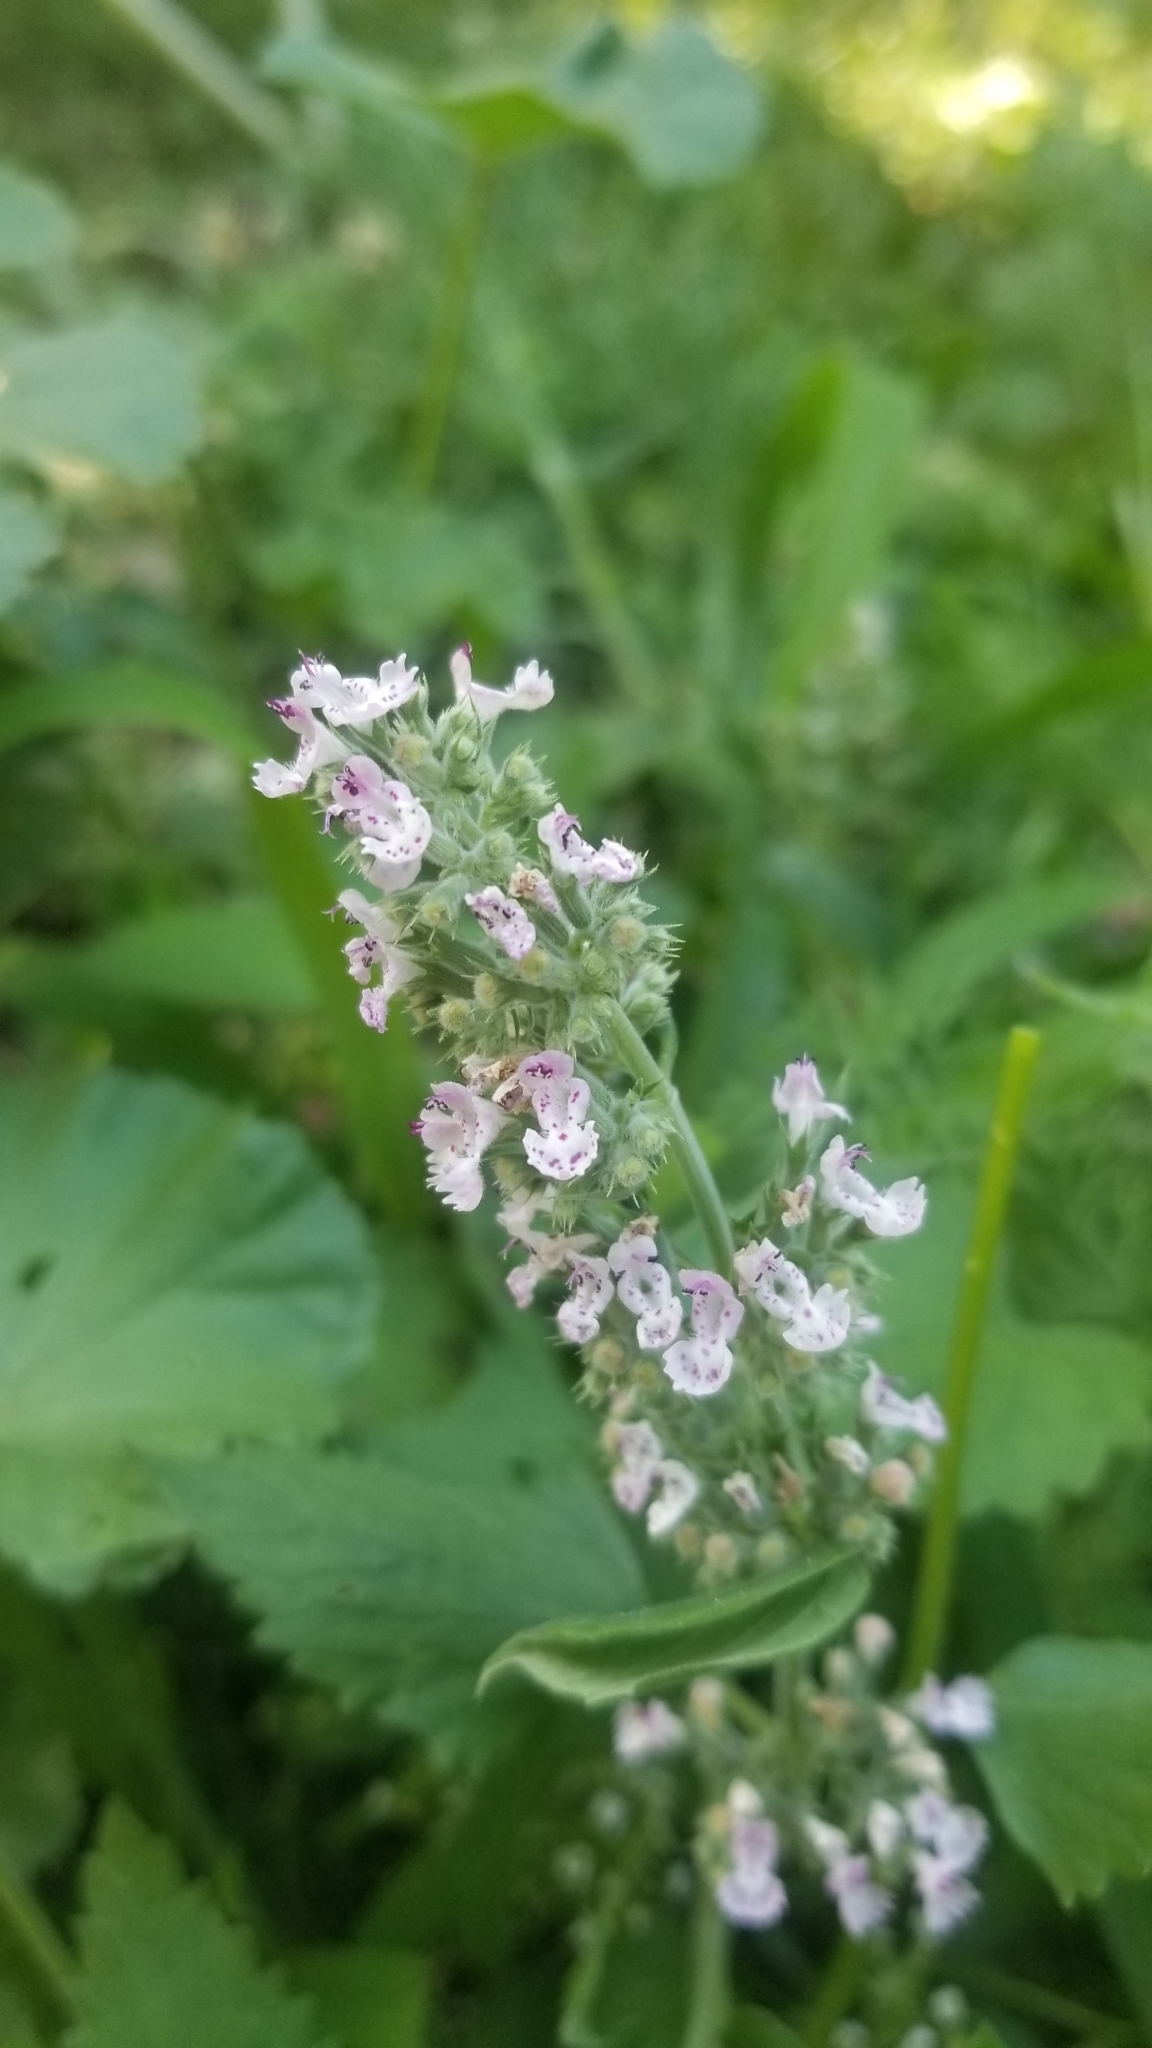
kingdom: Plantae
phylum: Tracheophyta
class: Magnoliopsida
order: Lamiales
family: Lamiaceae
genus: Nepeta
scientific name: Nepeta cataria
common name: Catnip
